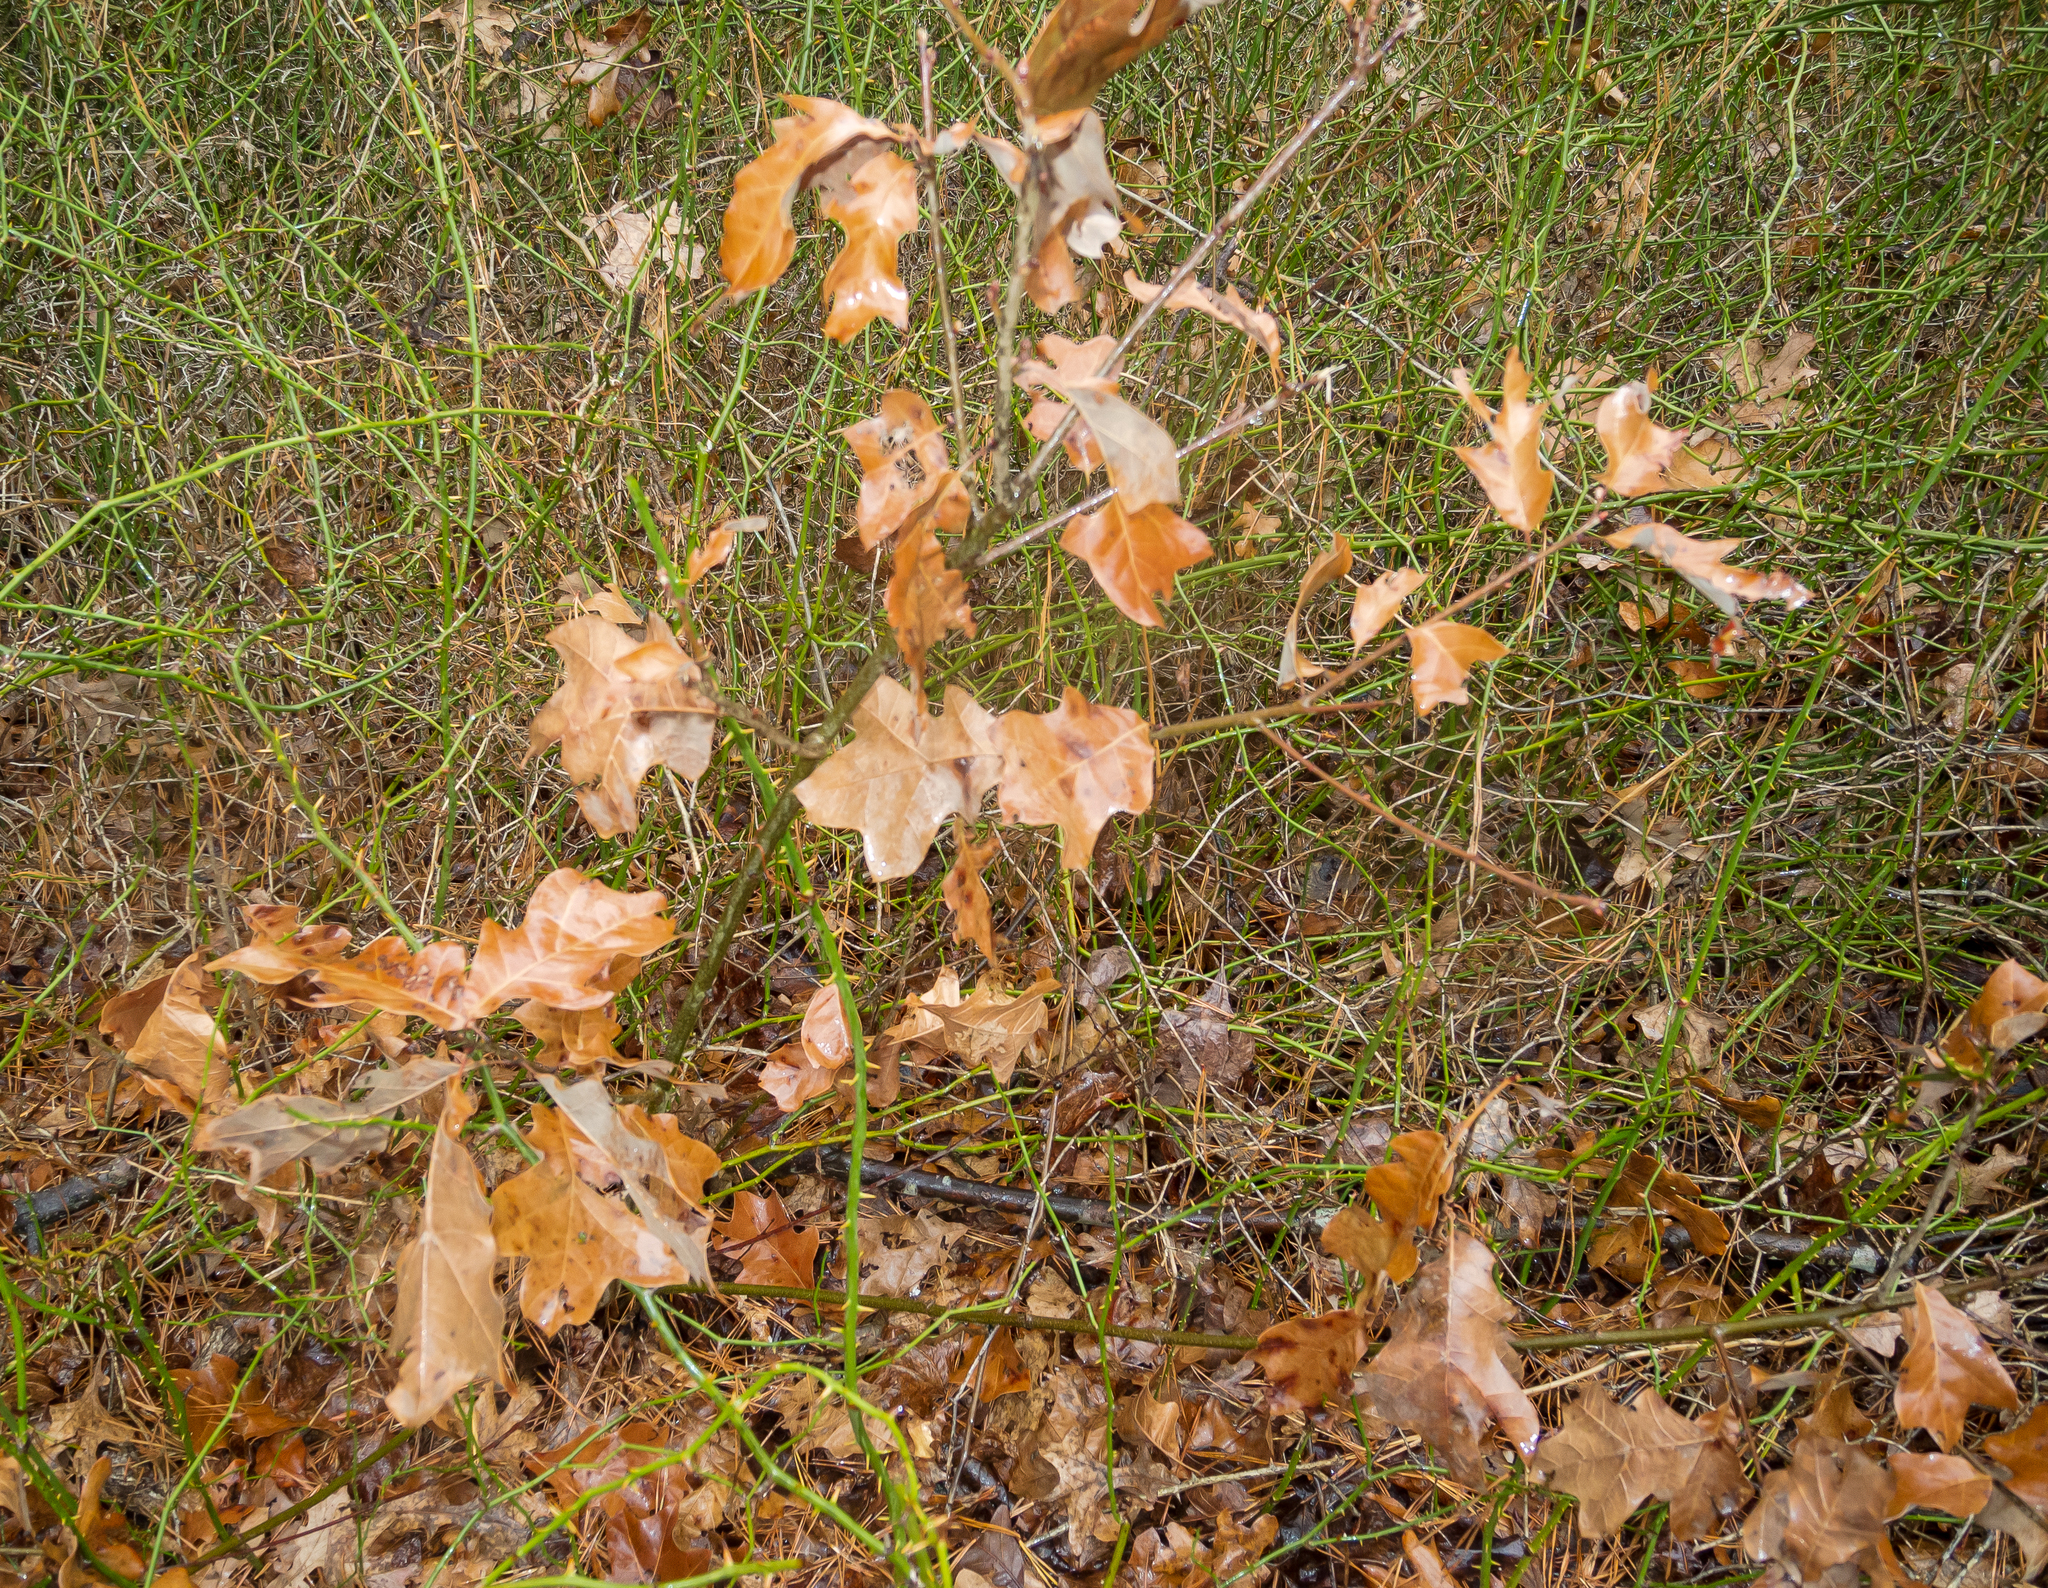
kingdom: Plantae
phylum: Tracheophyta
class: Liliopsida
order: Liliales
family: Smilacaceae
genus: Smilax
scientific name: Smilax rotundifolia
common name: Bullbriar
